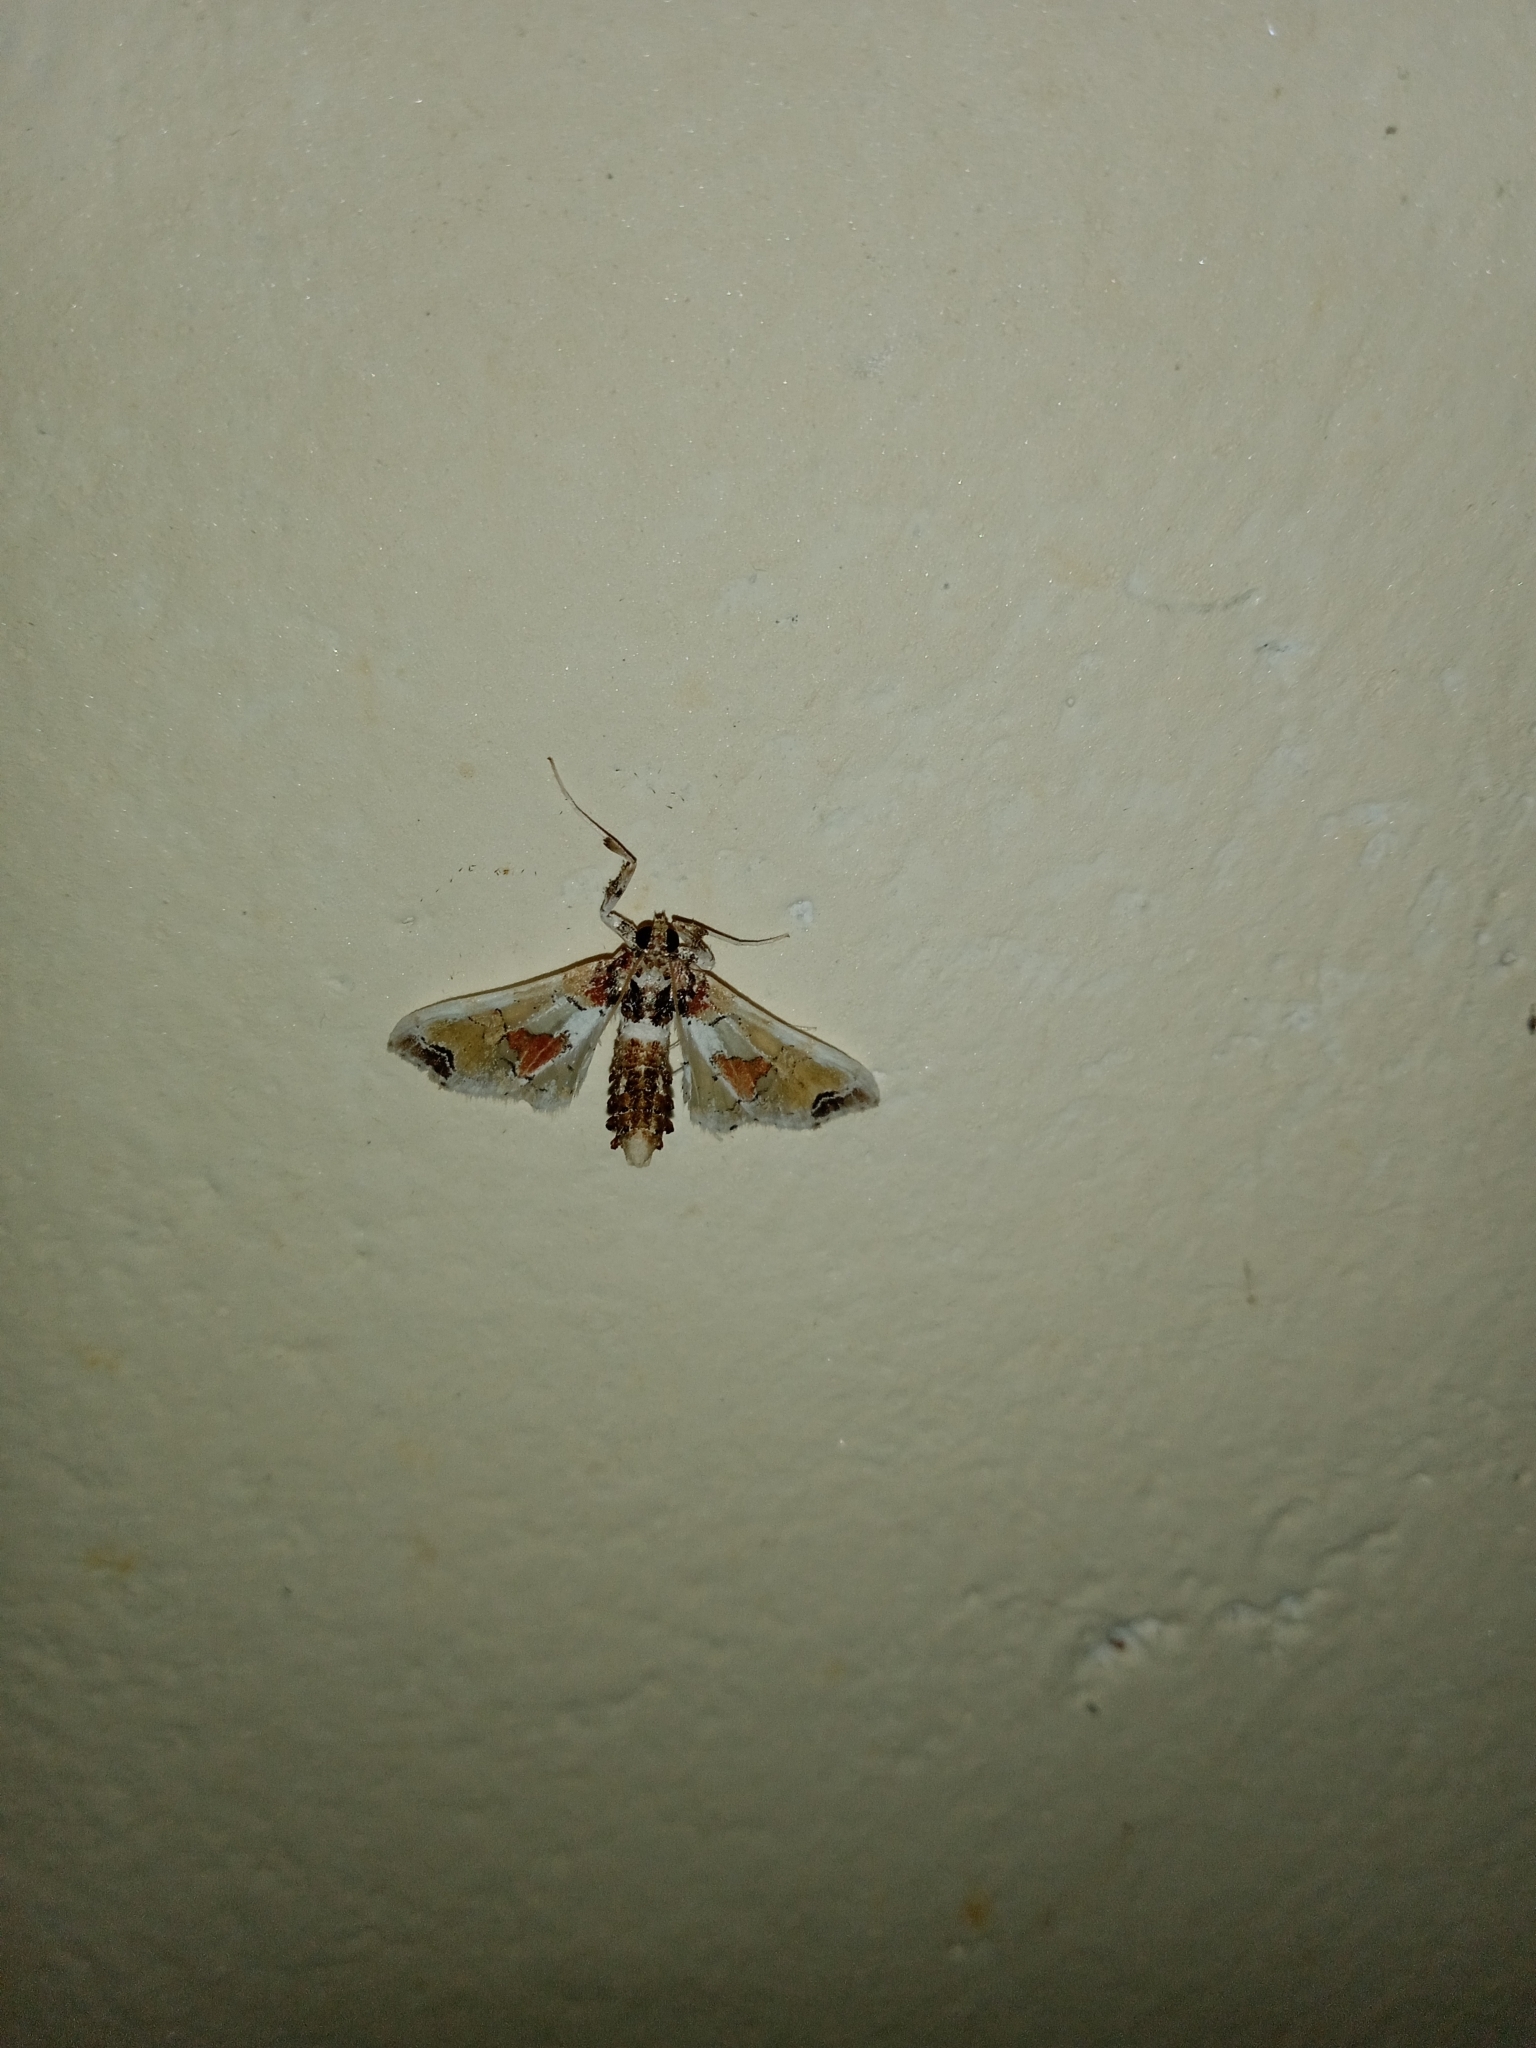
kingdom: Animalia
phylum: Arthropoda
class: Insecta
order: Lepidoptera
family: Crambidae
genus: Leucinodes
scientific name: Leucinodes orbonalis
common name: Aubergine pearl
